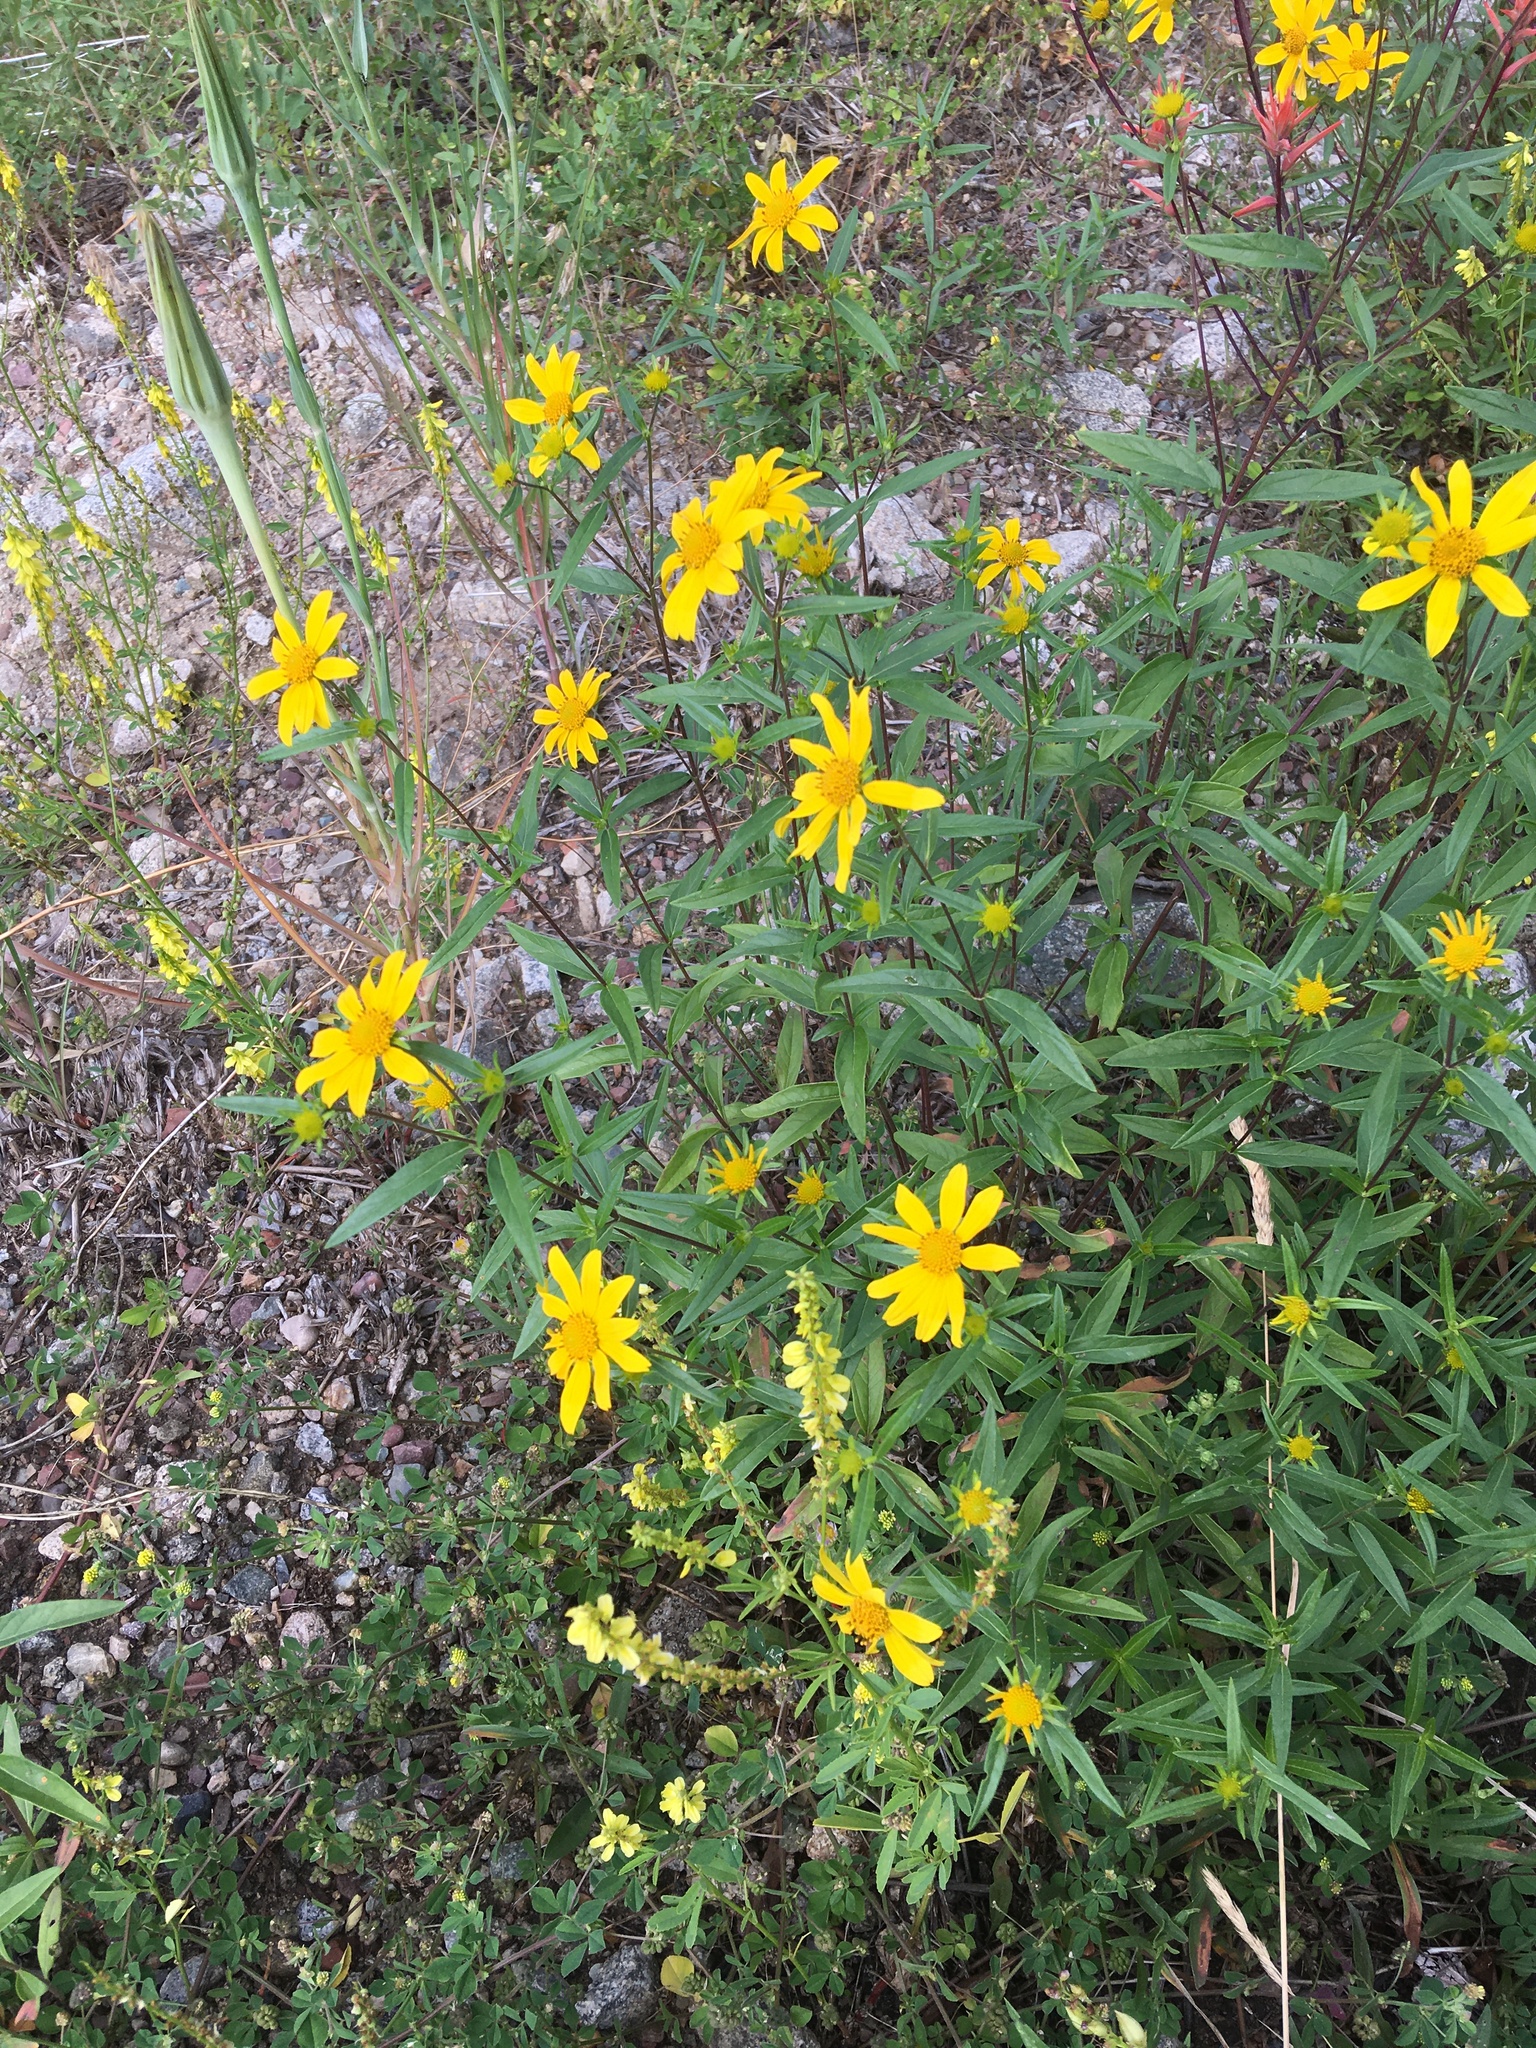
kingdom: Plantae
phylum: Tracheophyta
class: Magnoliopsida
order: Asterales
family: Asteraceae
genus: Heliomeris
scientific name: Heliomeris multiflora
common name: Showy goldeneye
